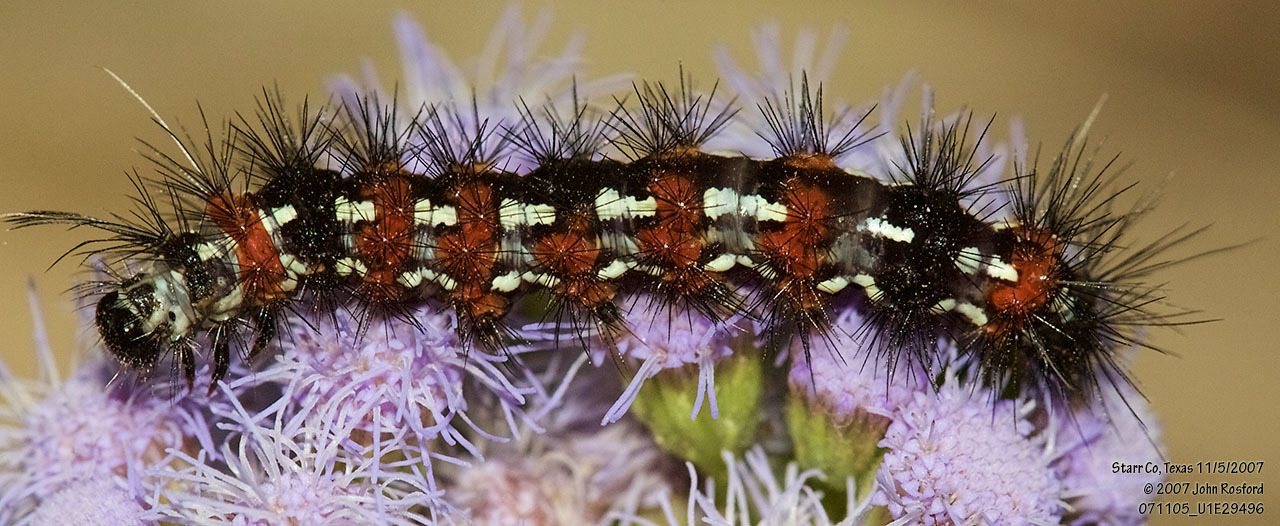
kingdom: Animalia
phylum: Arthropoda
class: Insecta
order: Lepidoptera
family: Erebidae
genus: Pareuchaetes
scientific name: Pareuchaetes insulata
